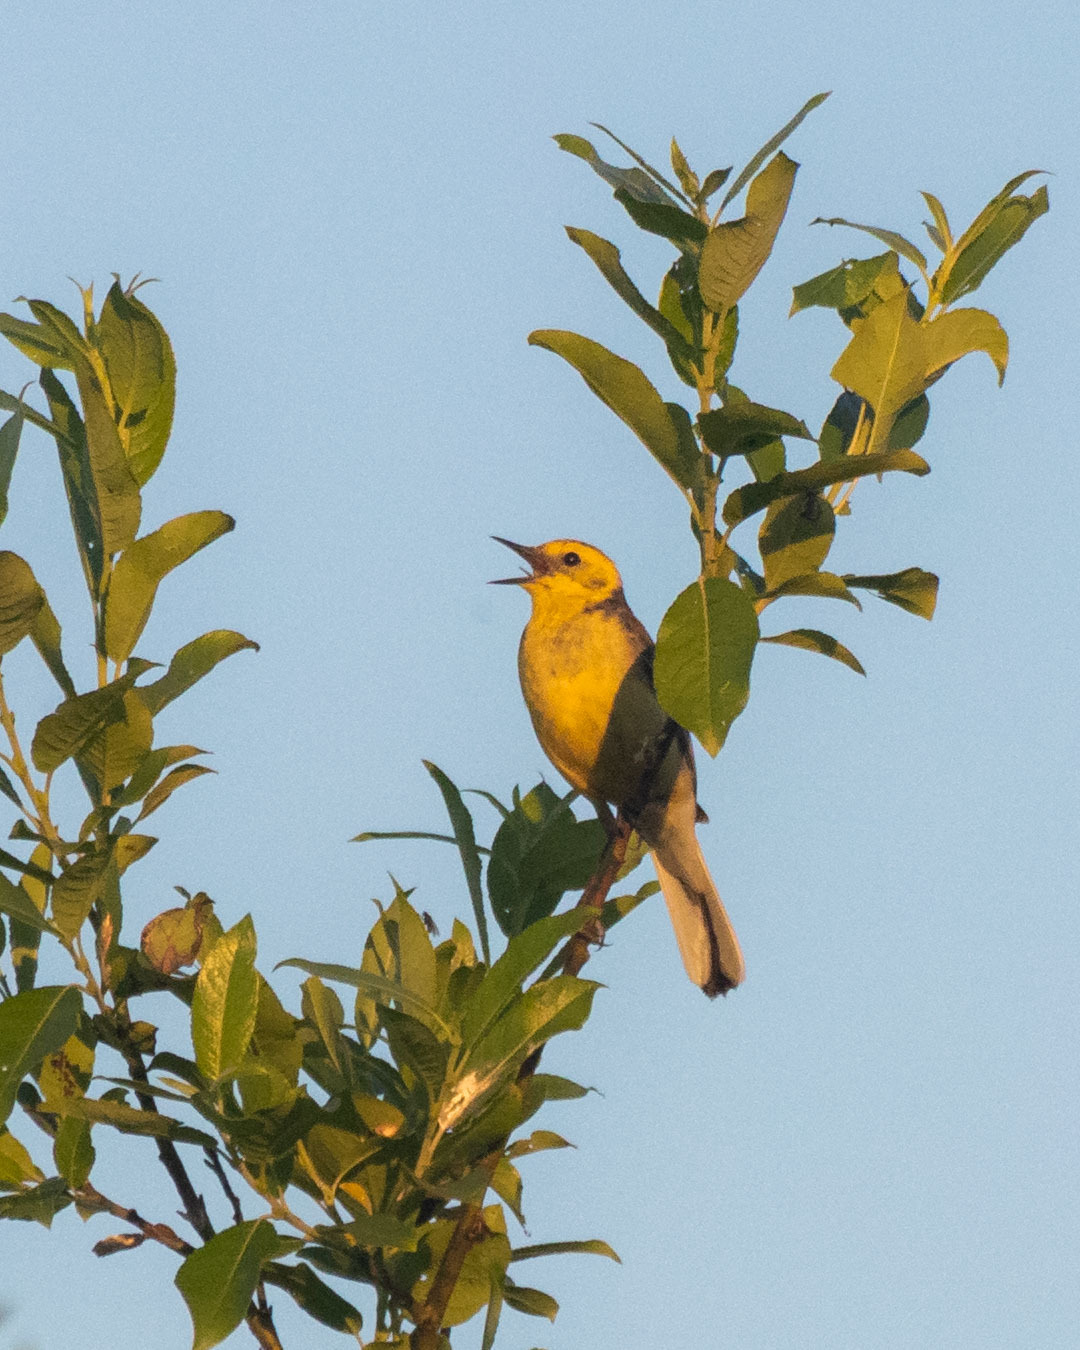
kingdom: Animalia
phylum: Chordata
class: Aves
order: Passeriformes
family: Motacillidae
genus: Motacilla
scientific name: Motacilla citreola
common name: Citrine wagtail
